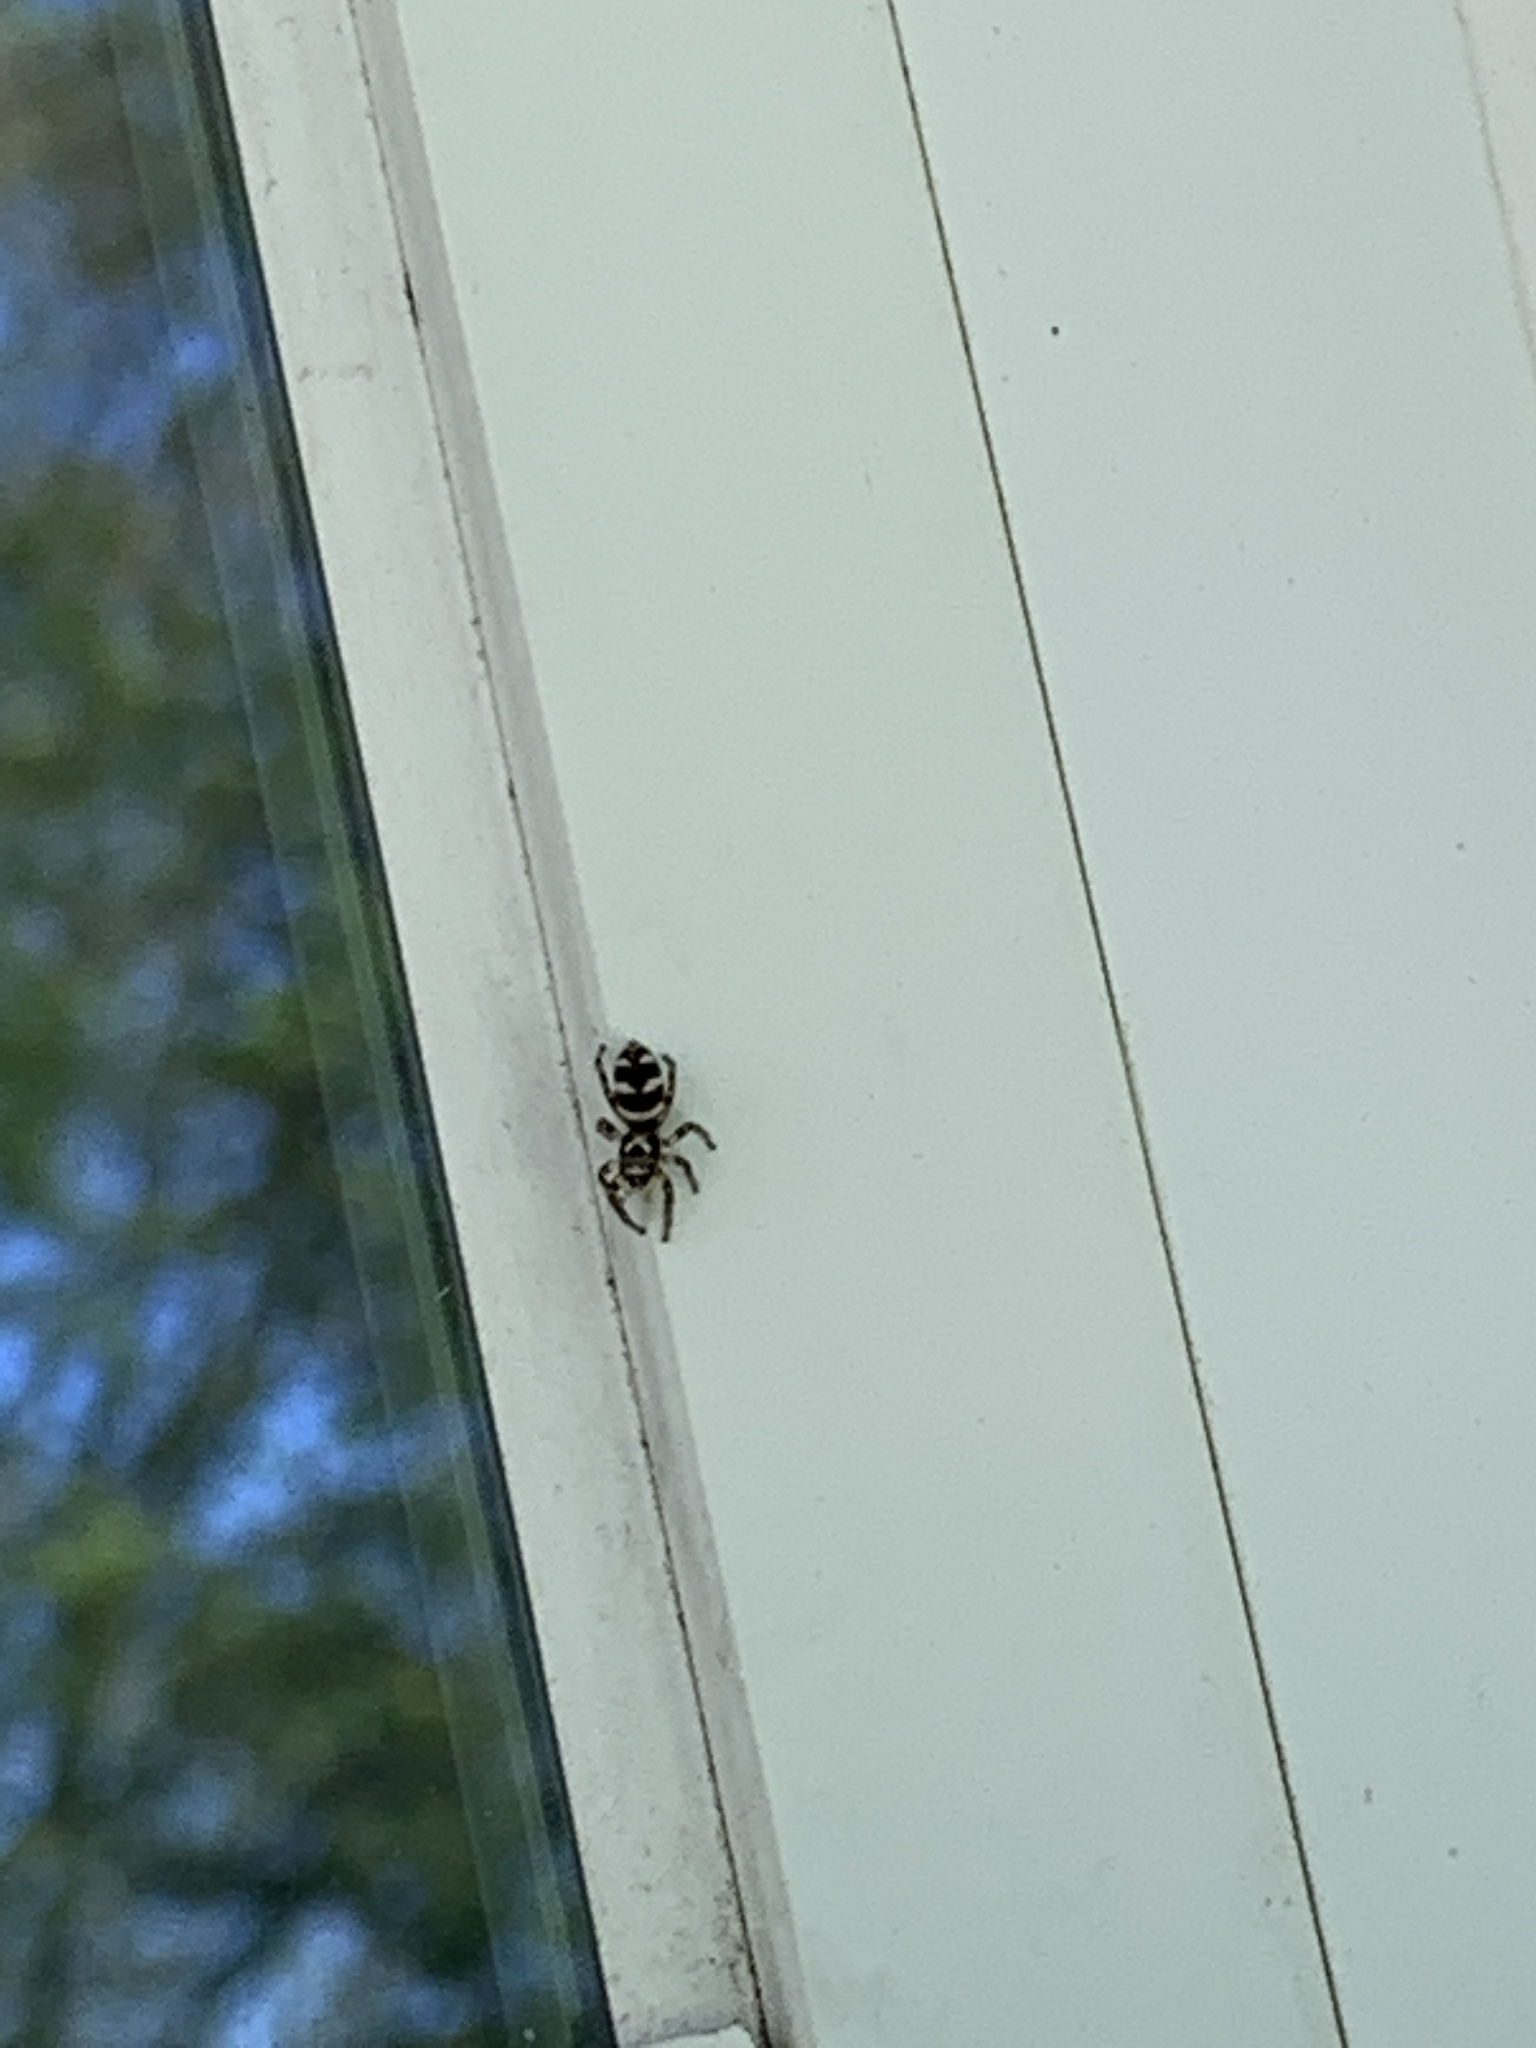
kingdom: Animalia
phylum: Arthropoda
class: Arachnida
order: Araneae
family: Salticidae
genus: Salticus
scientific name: Salticus scenicus
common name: Zebra jumper
